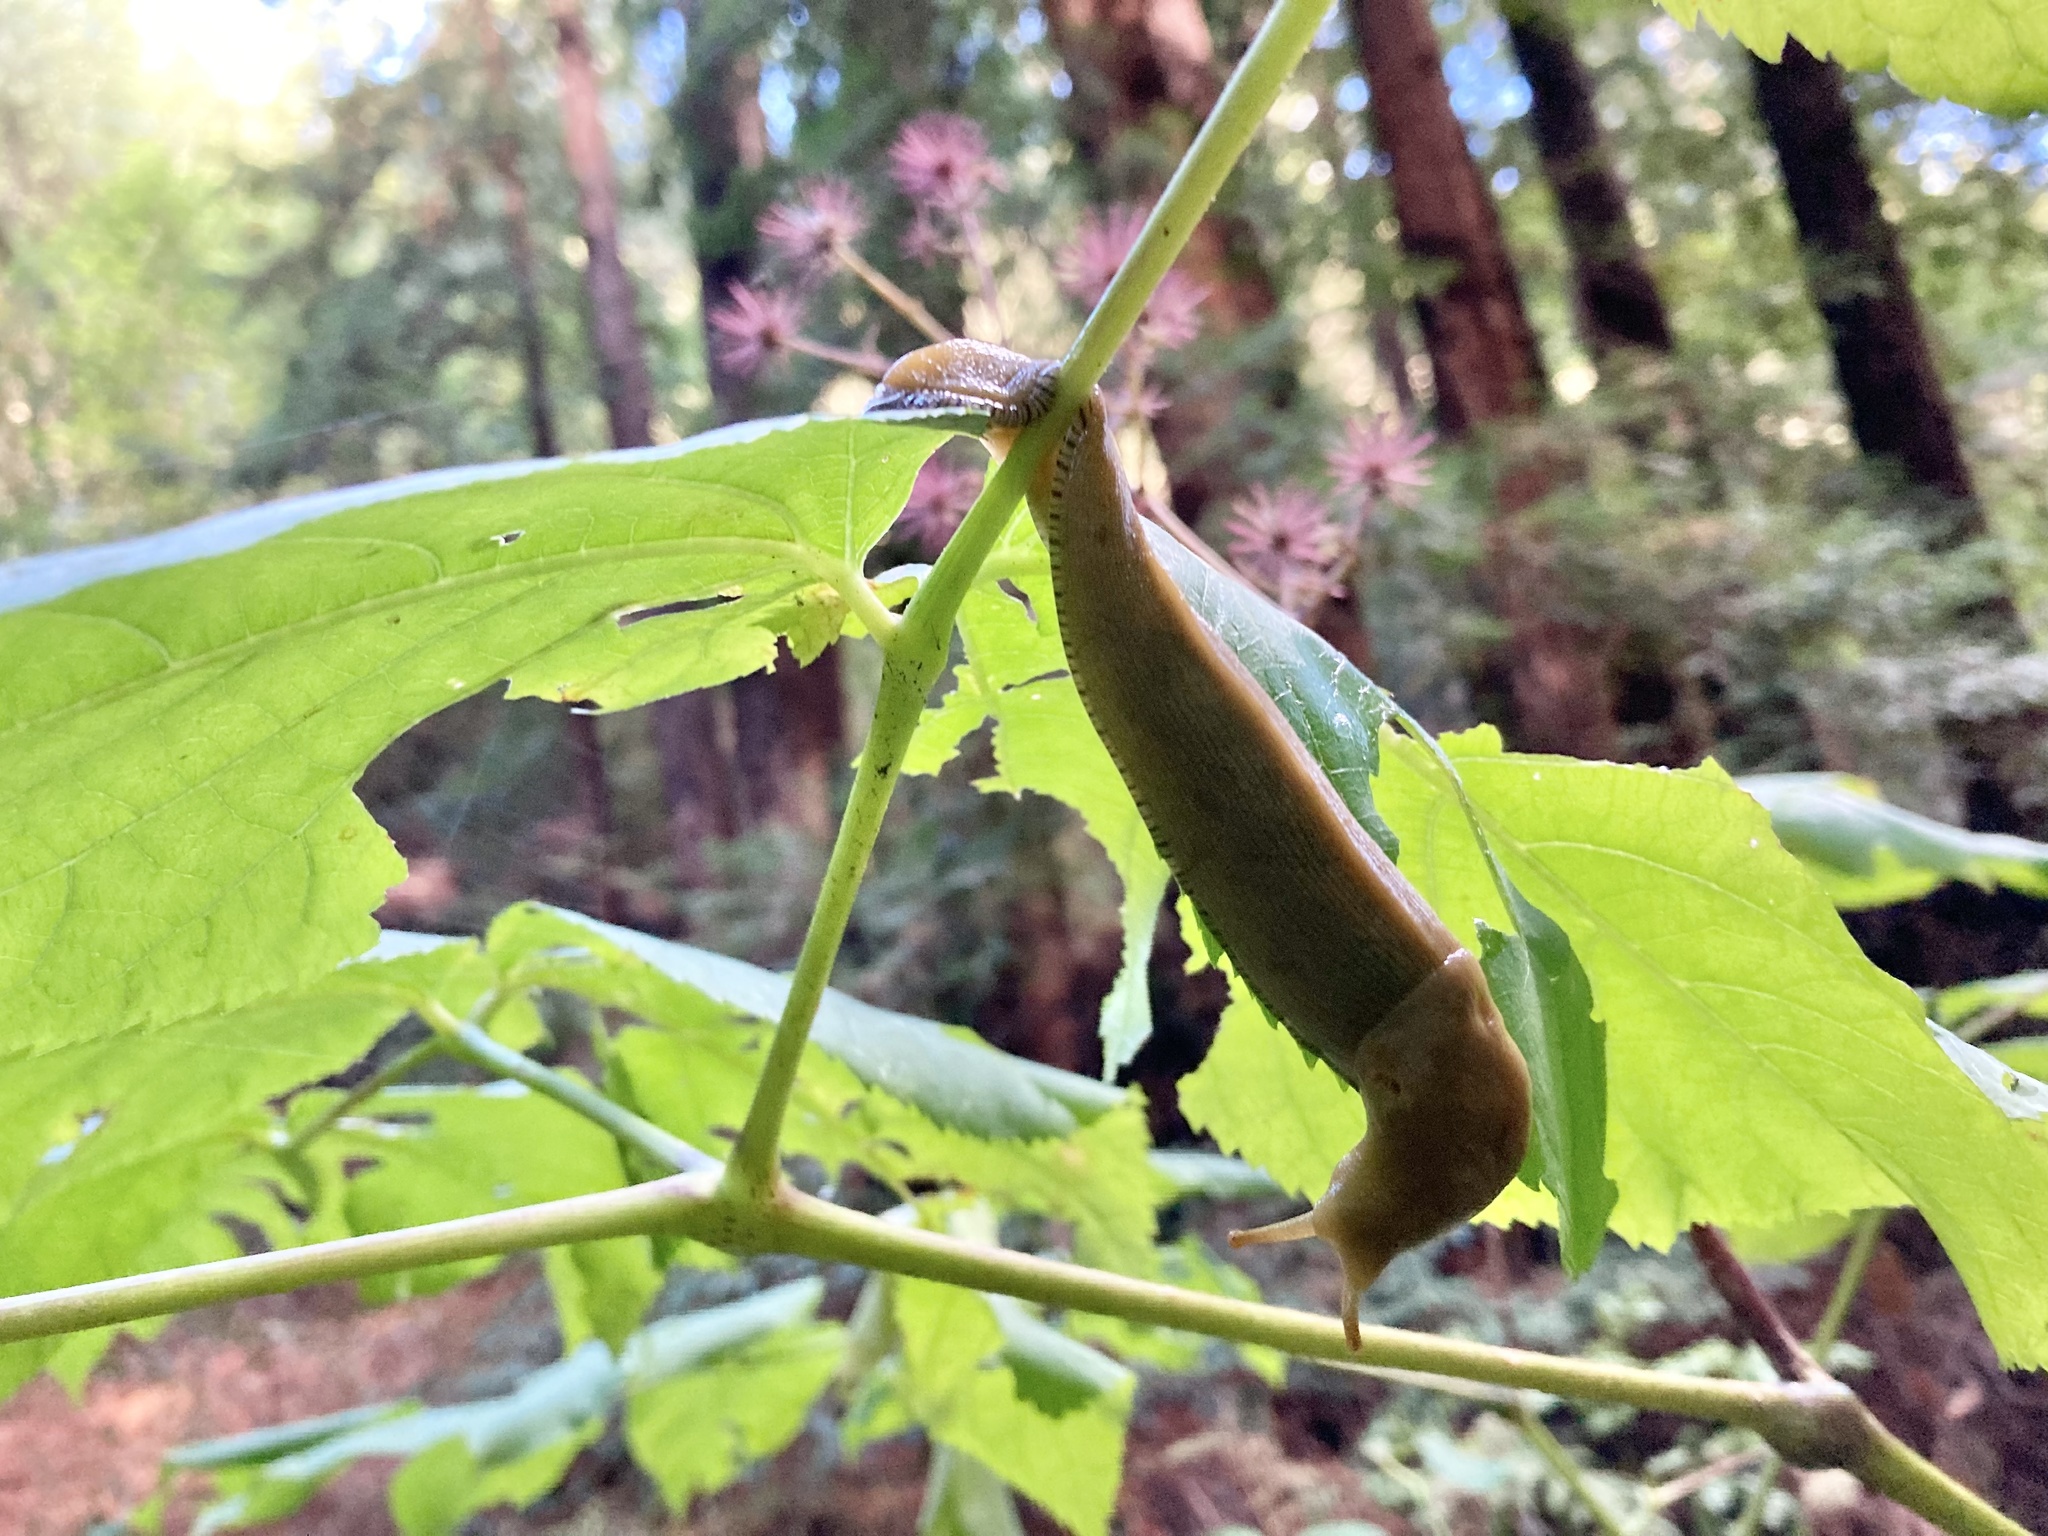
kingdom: Animalia
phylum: Mollusca
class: Gastropoda
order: Stylommatophora
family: Ariolimacidae
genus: Ariolimax
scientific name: Ariolimax buttoni
